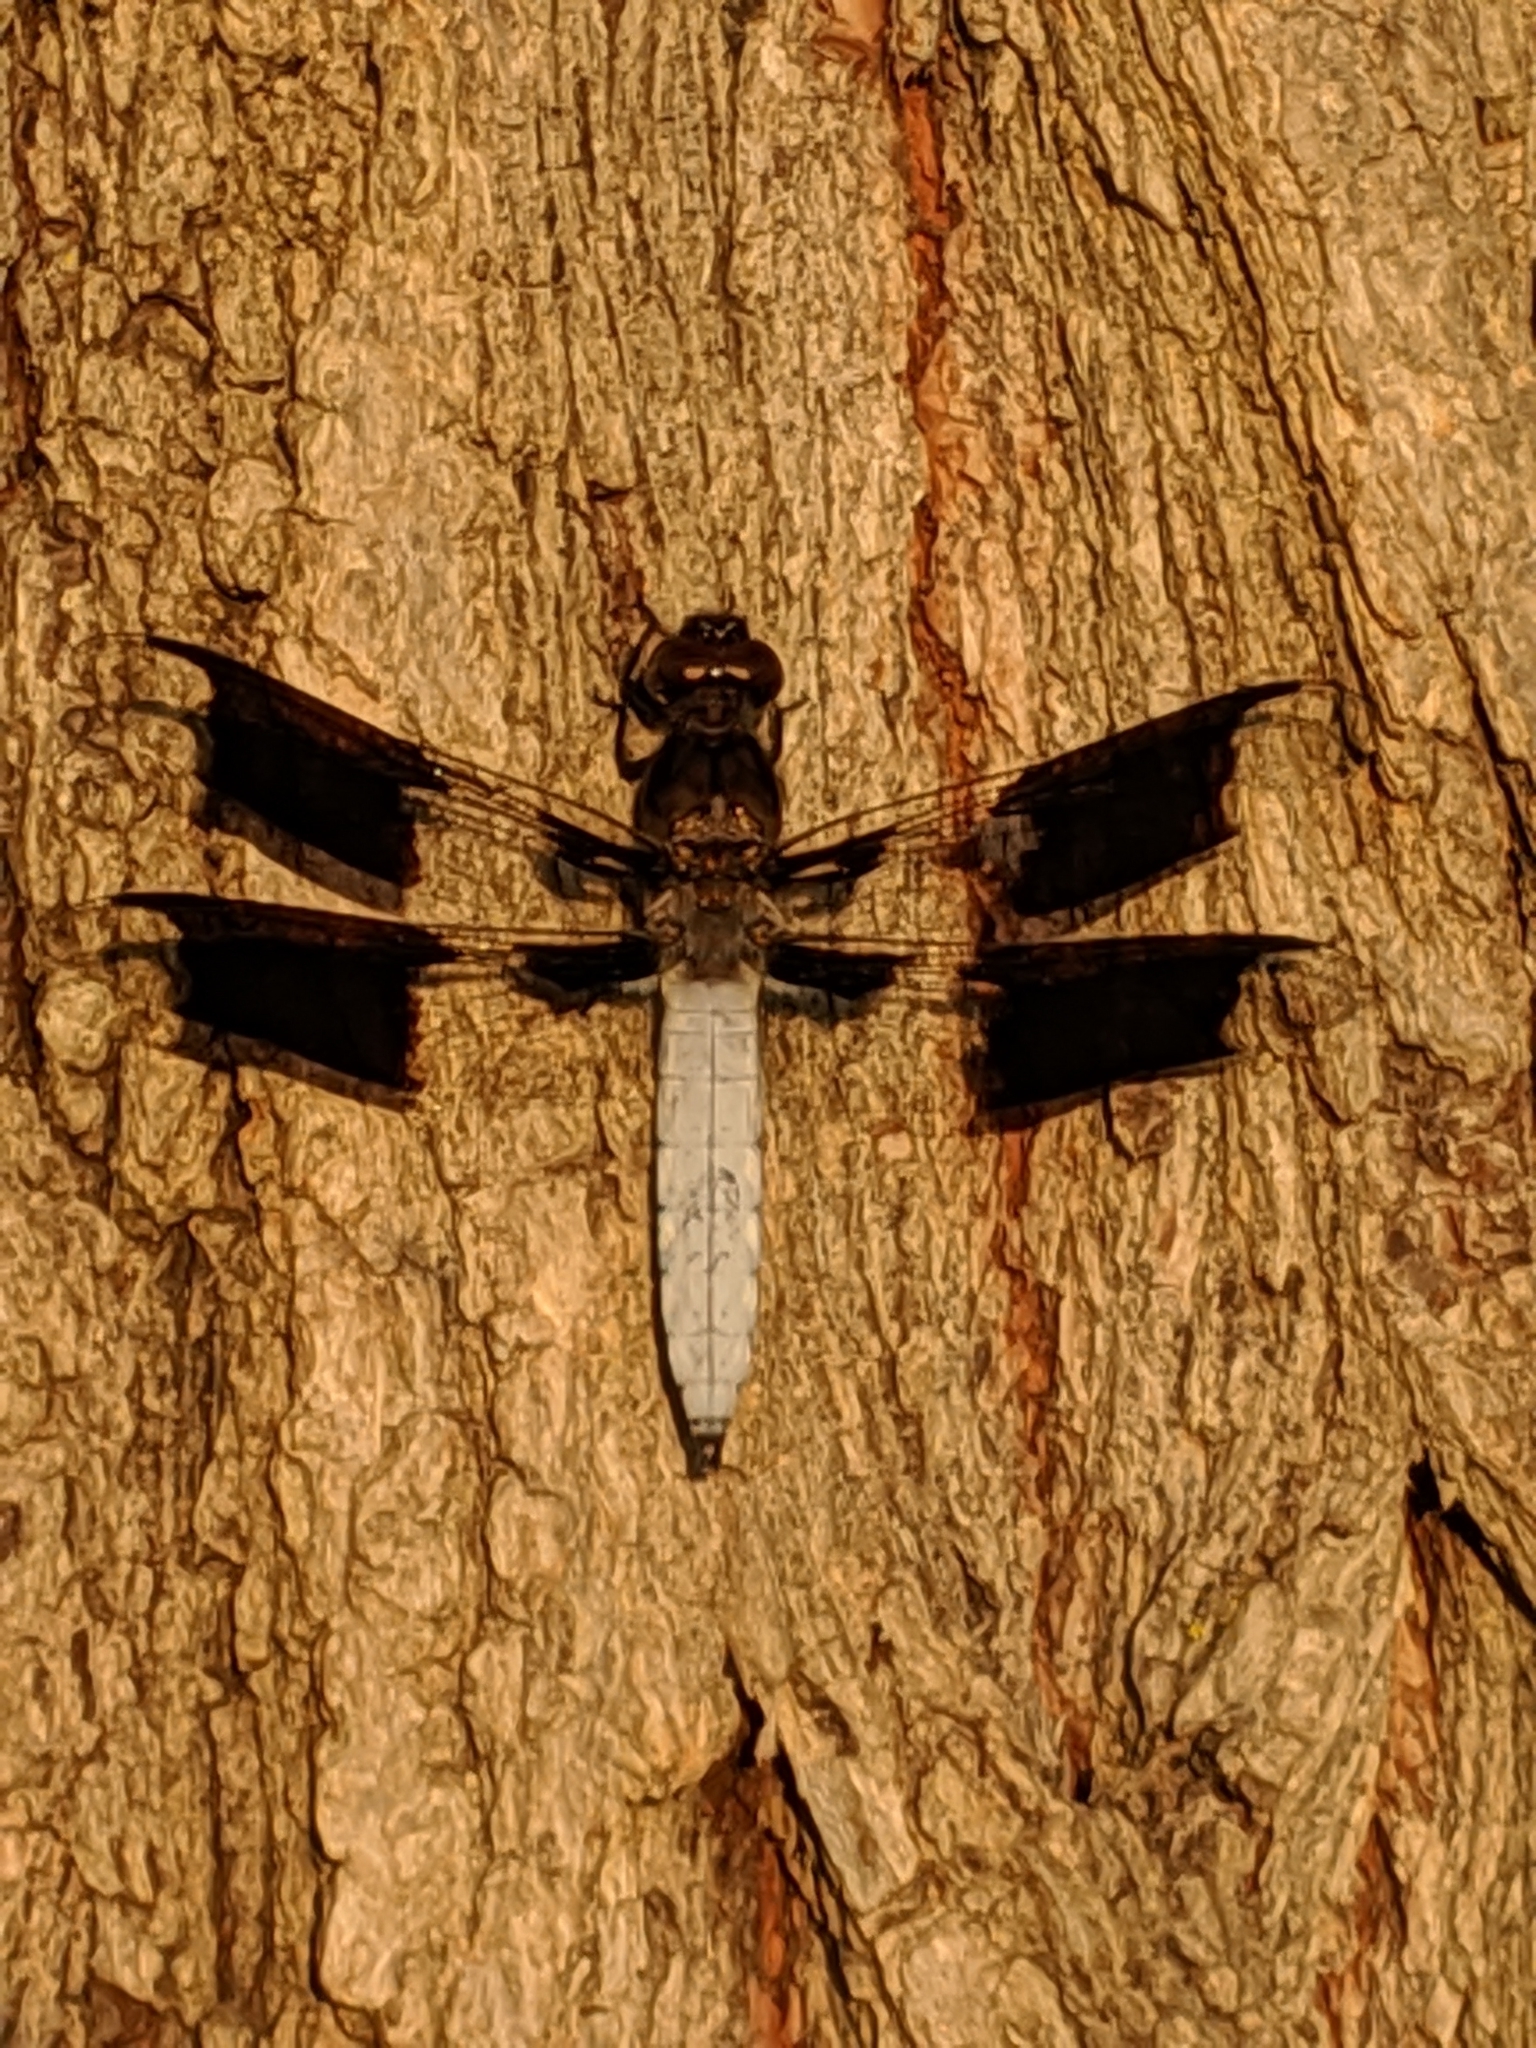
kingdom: Animalia
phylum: Arthropoda
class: Insecta
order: Odonata
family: Libellulidae
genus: Plathemis
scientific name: Plathemis lydia
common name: Common whitetail
